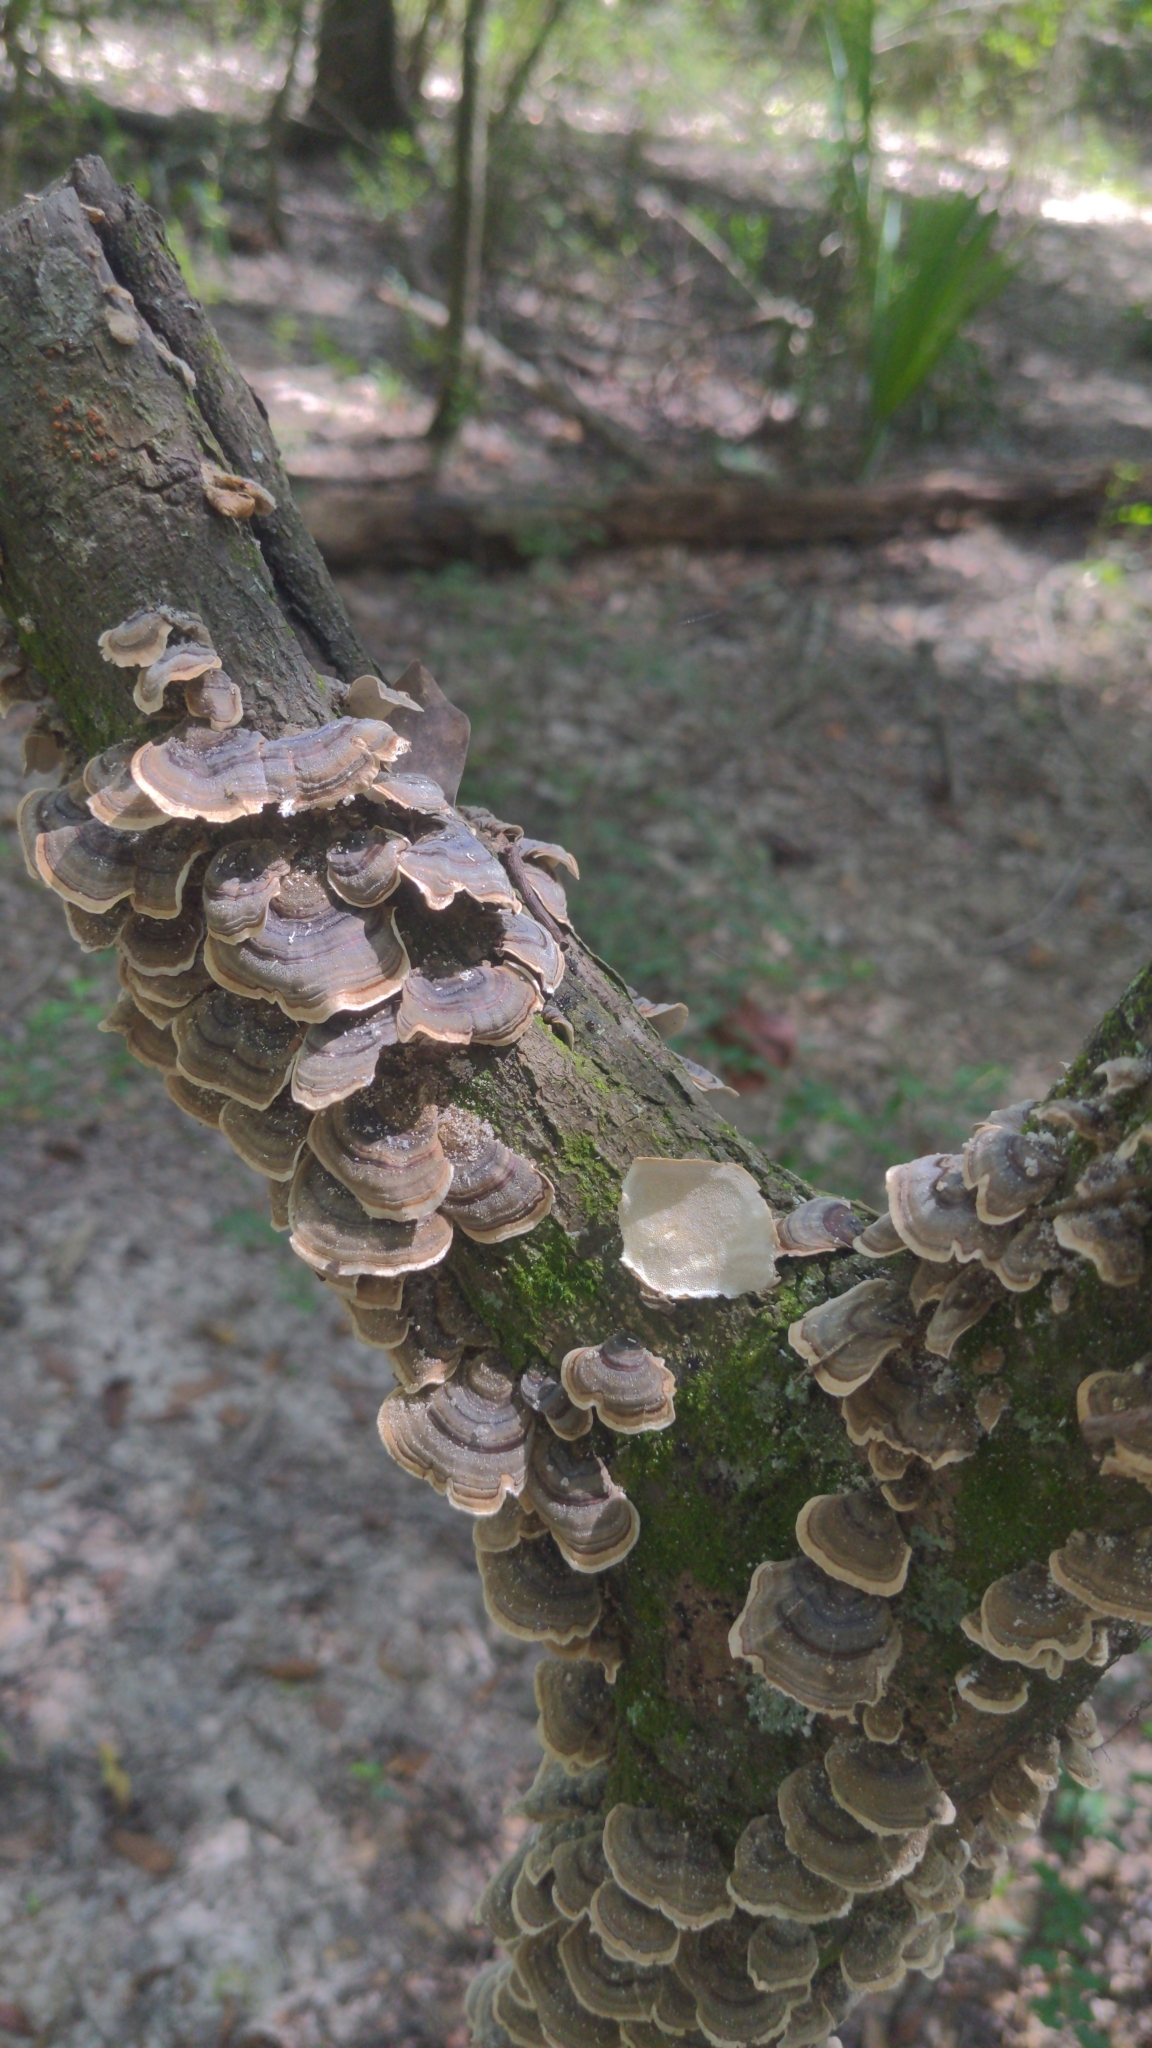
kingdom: Fungi
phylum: Basidiomycota
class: Agaricomycetes
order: Polyporales
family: Polyporaceae
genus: Trametes
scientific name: Trametes versicolor
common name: Turkeytail
